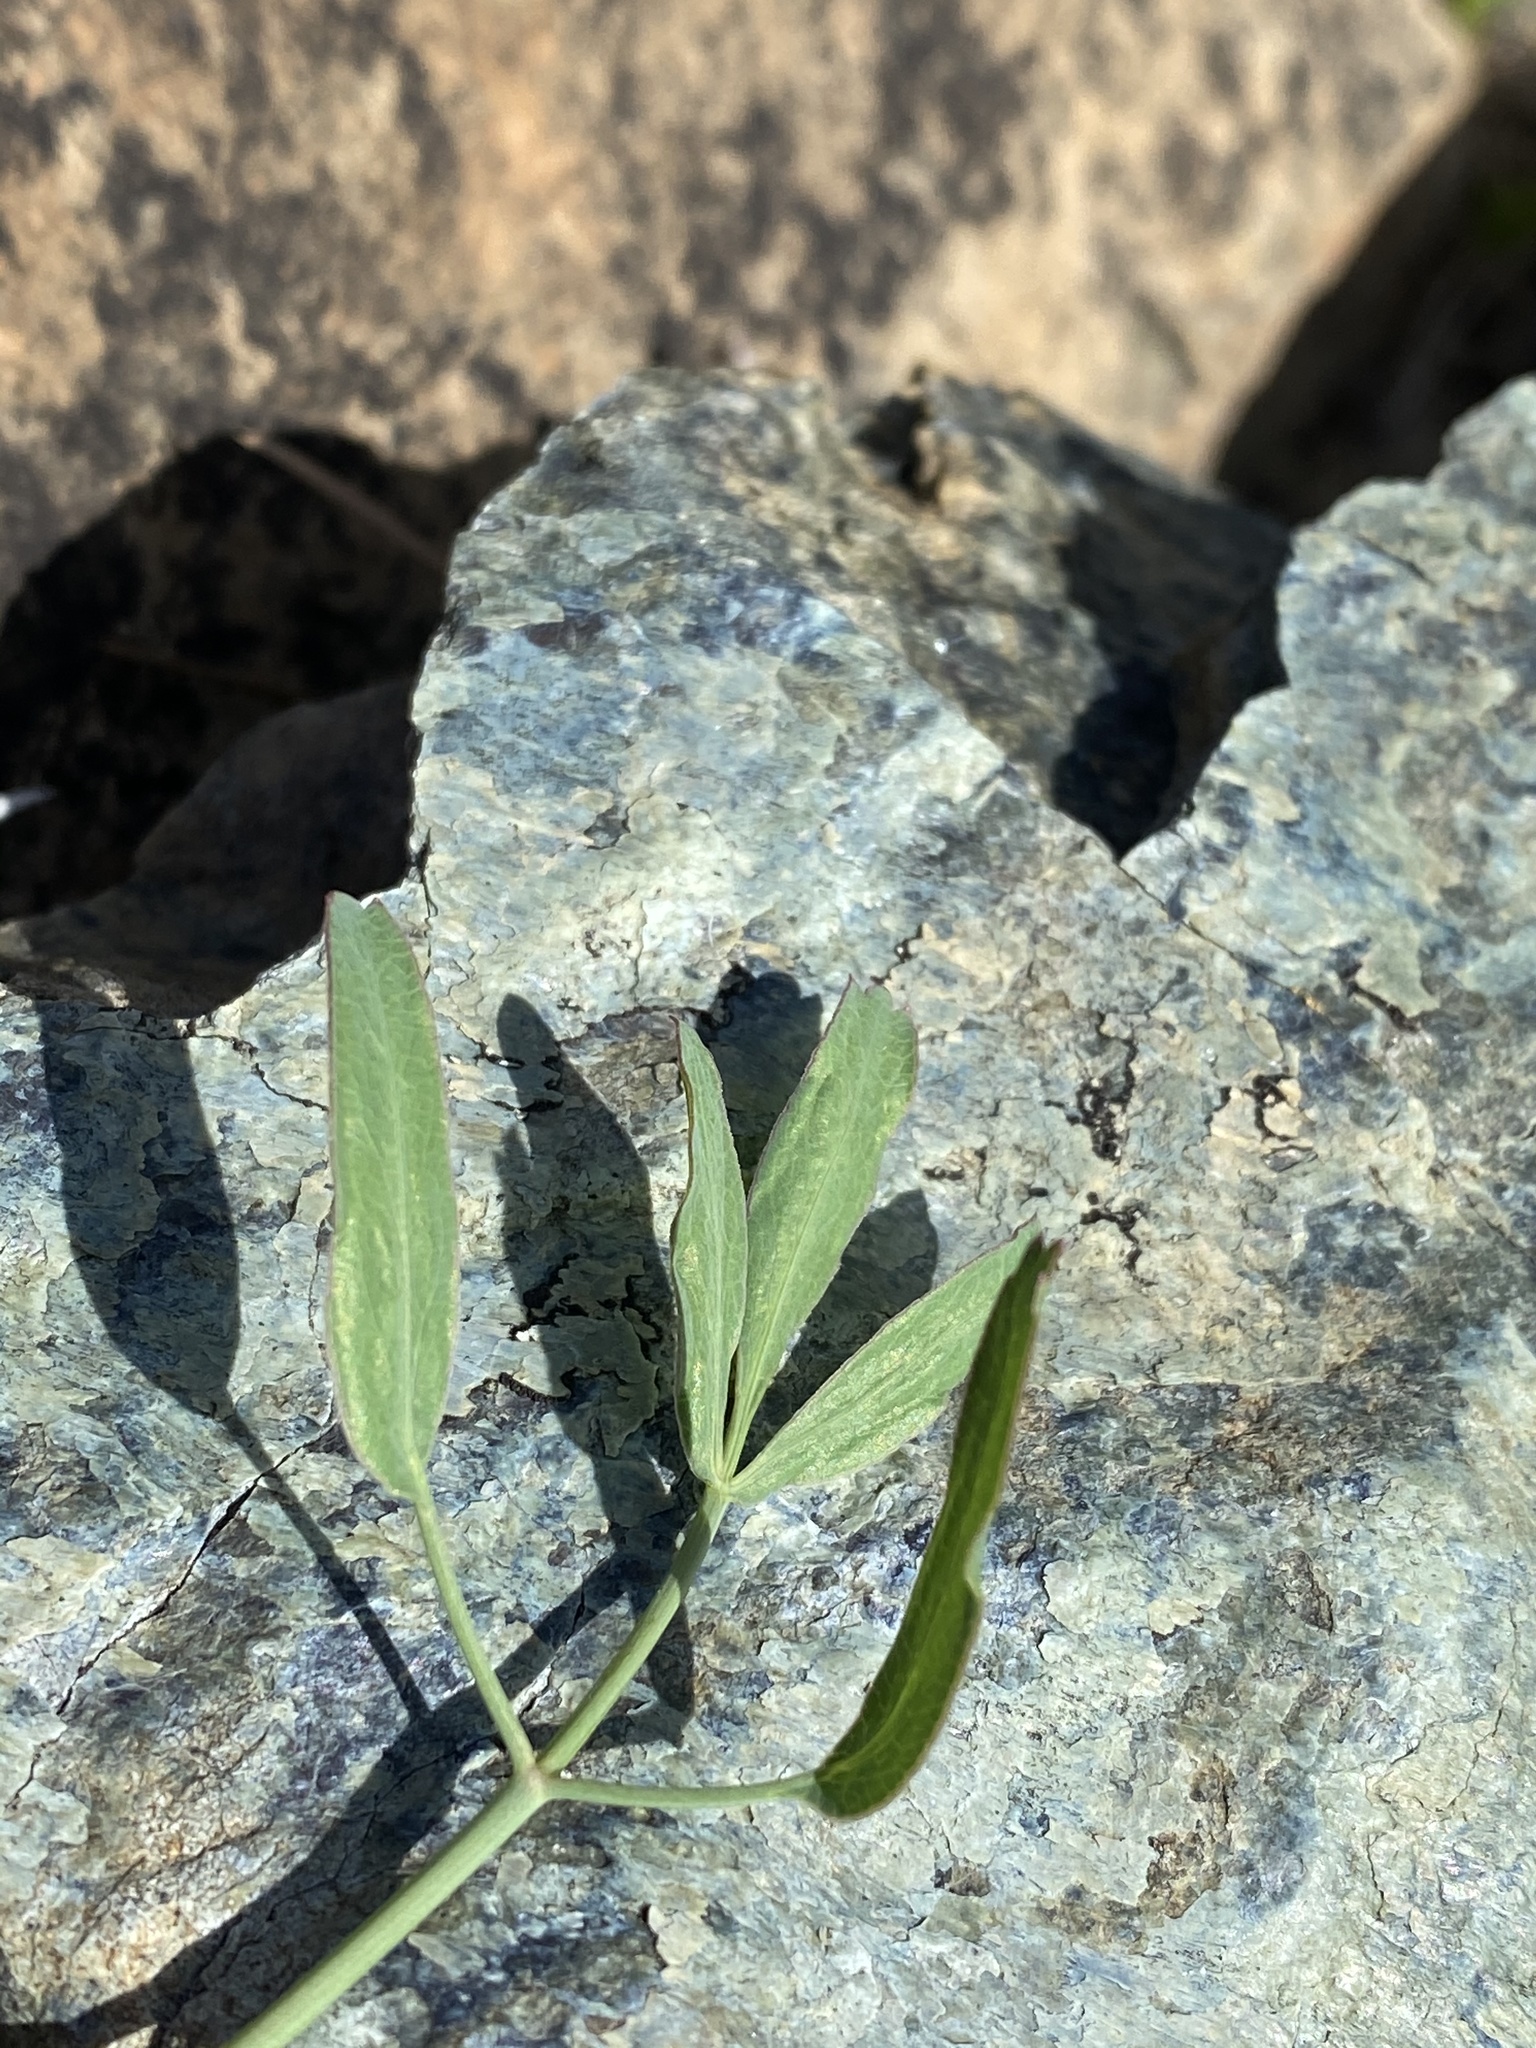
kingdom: Plantae
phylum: Tracheophyta
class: Magnoliopsida
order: Apiales
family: Apiaceae
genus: Lomatium
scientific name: Lomatium nudicaule
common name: Pestle lomatium
